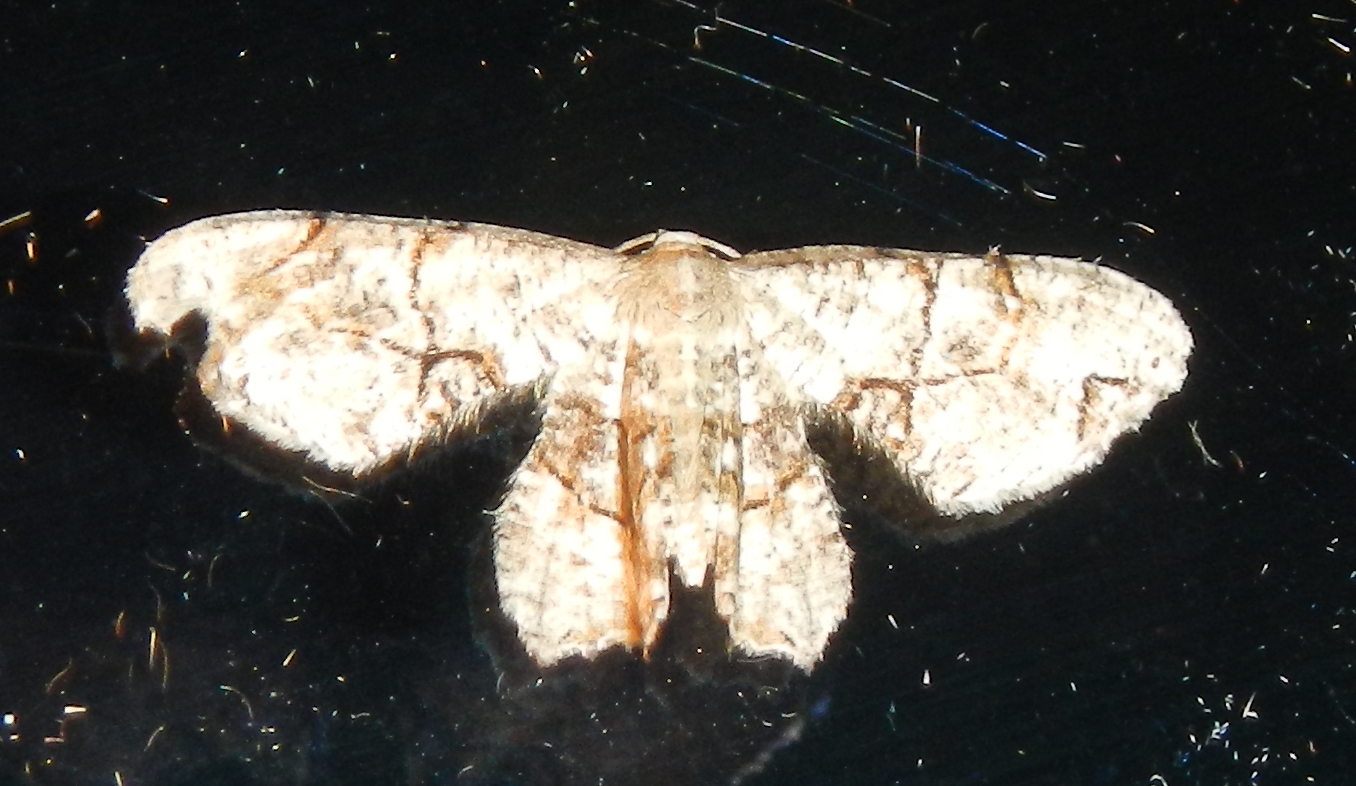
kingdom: Animalia
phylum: Arthropoda
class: Insecta
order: Lepidoptera
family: Uraniidae
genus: Epiplema
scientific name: Epiplema Callizzia amorata
